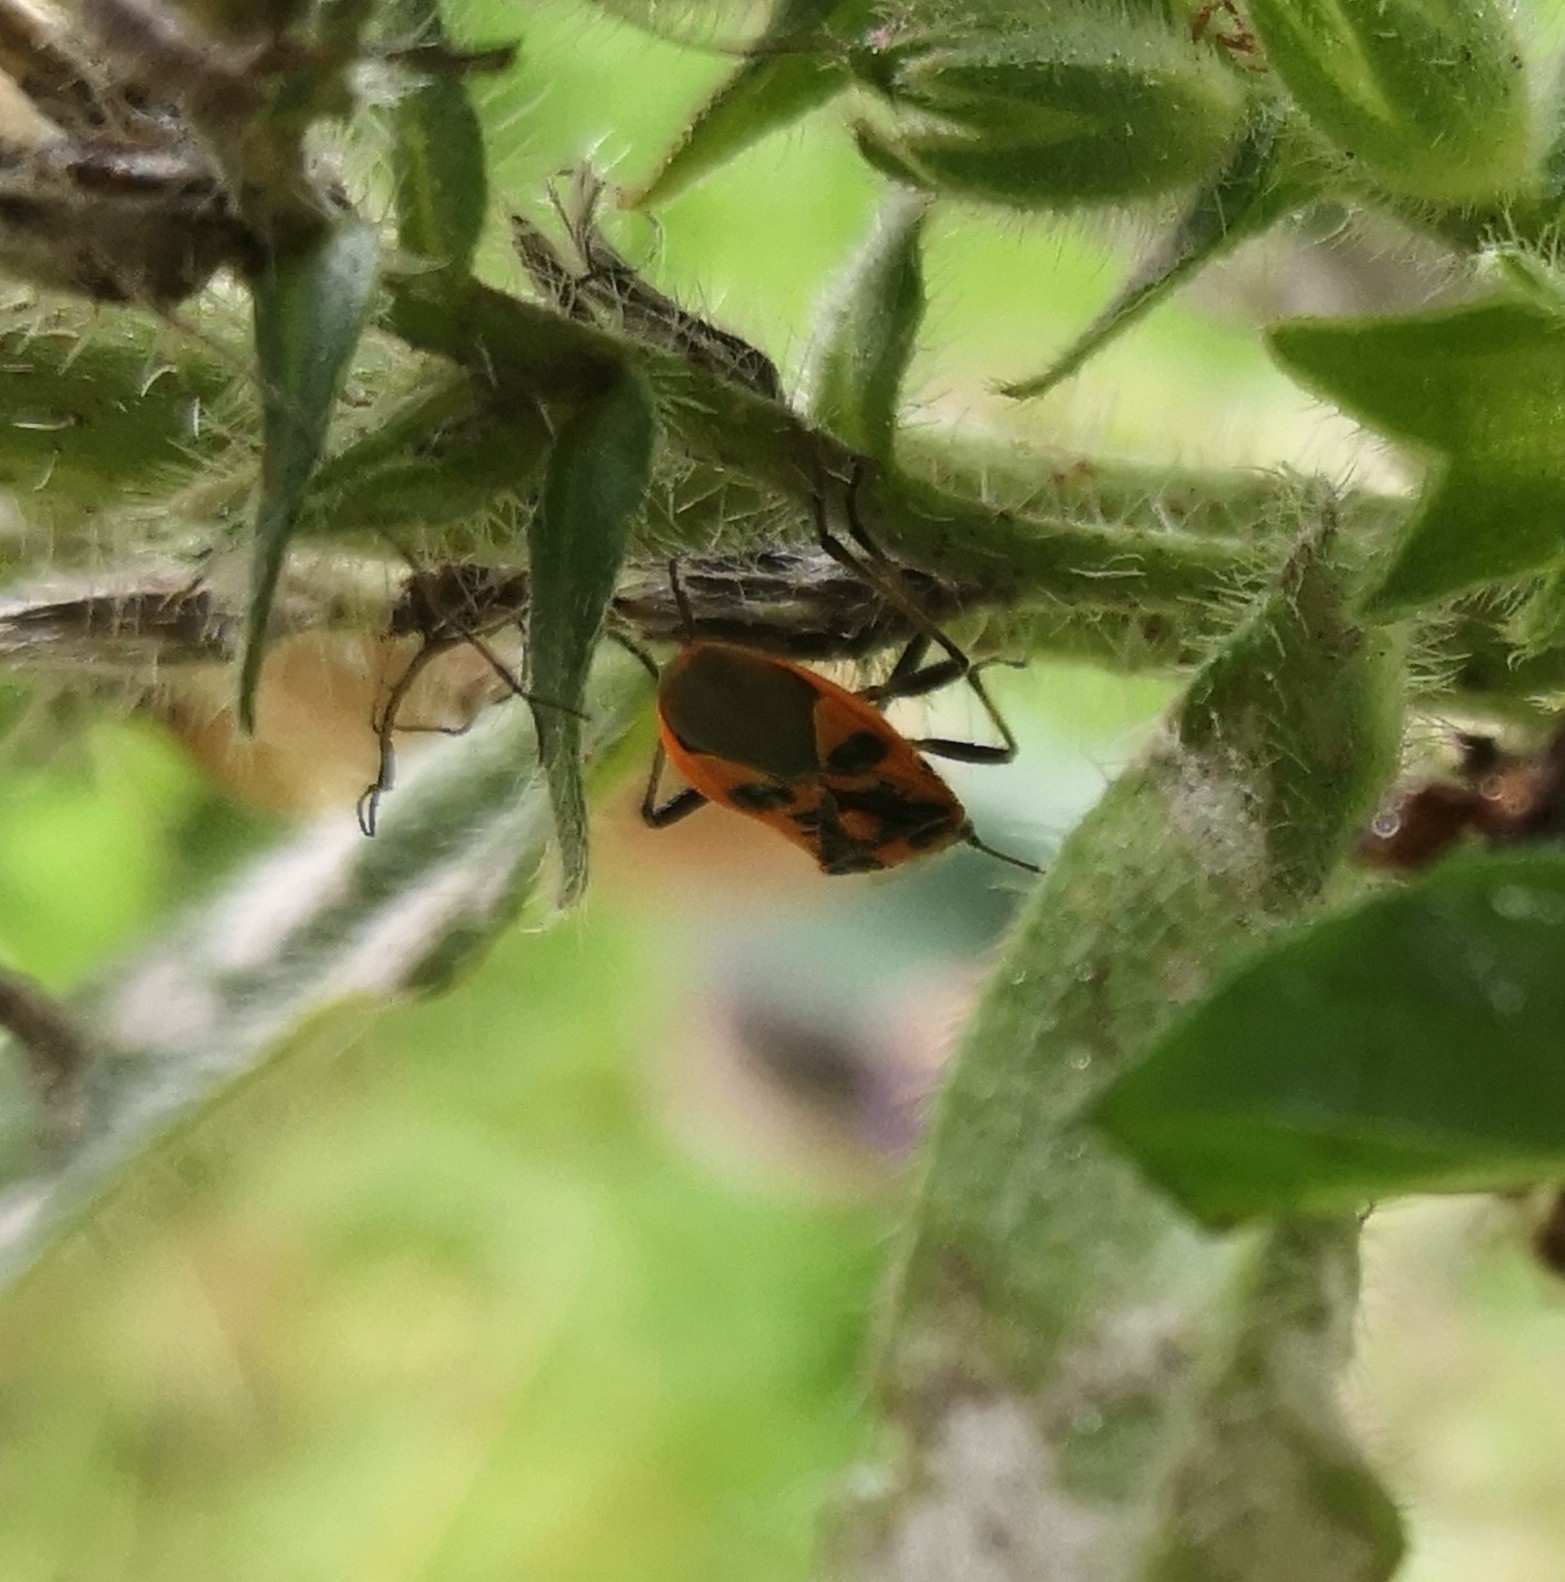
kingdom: Animalia
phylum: Arthropoda
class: Insecta
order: Hemiptera
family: Rhopalidae
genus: Corizus
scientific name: Corizus hyoscyami
